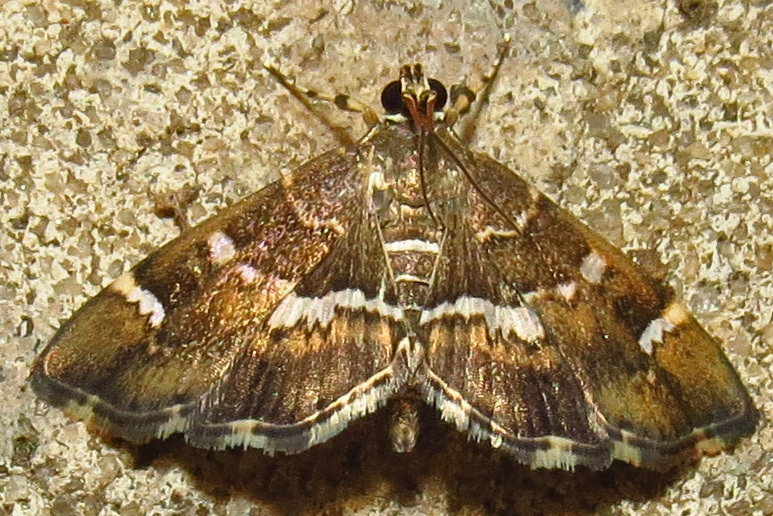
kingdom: Animalia
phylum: Arthropoda
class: Insecta
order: Lepidoptera
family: Crambidae
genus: Hymenia
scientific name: Hymenia perspectalis
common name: Spotted beet webworm
